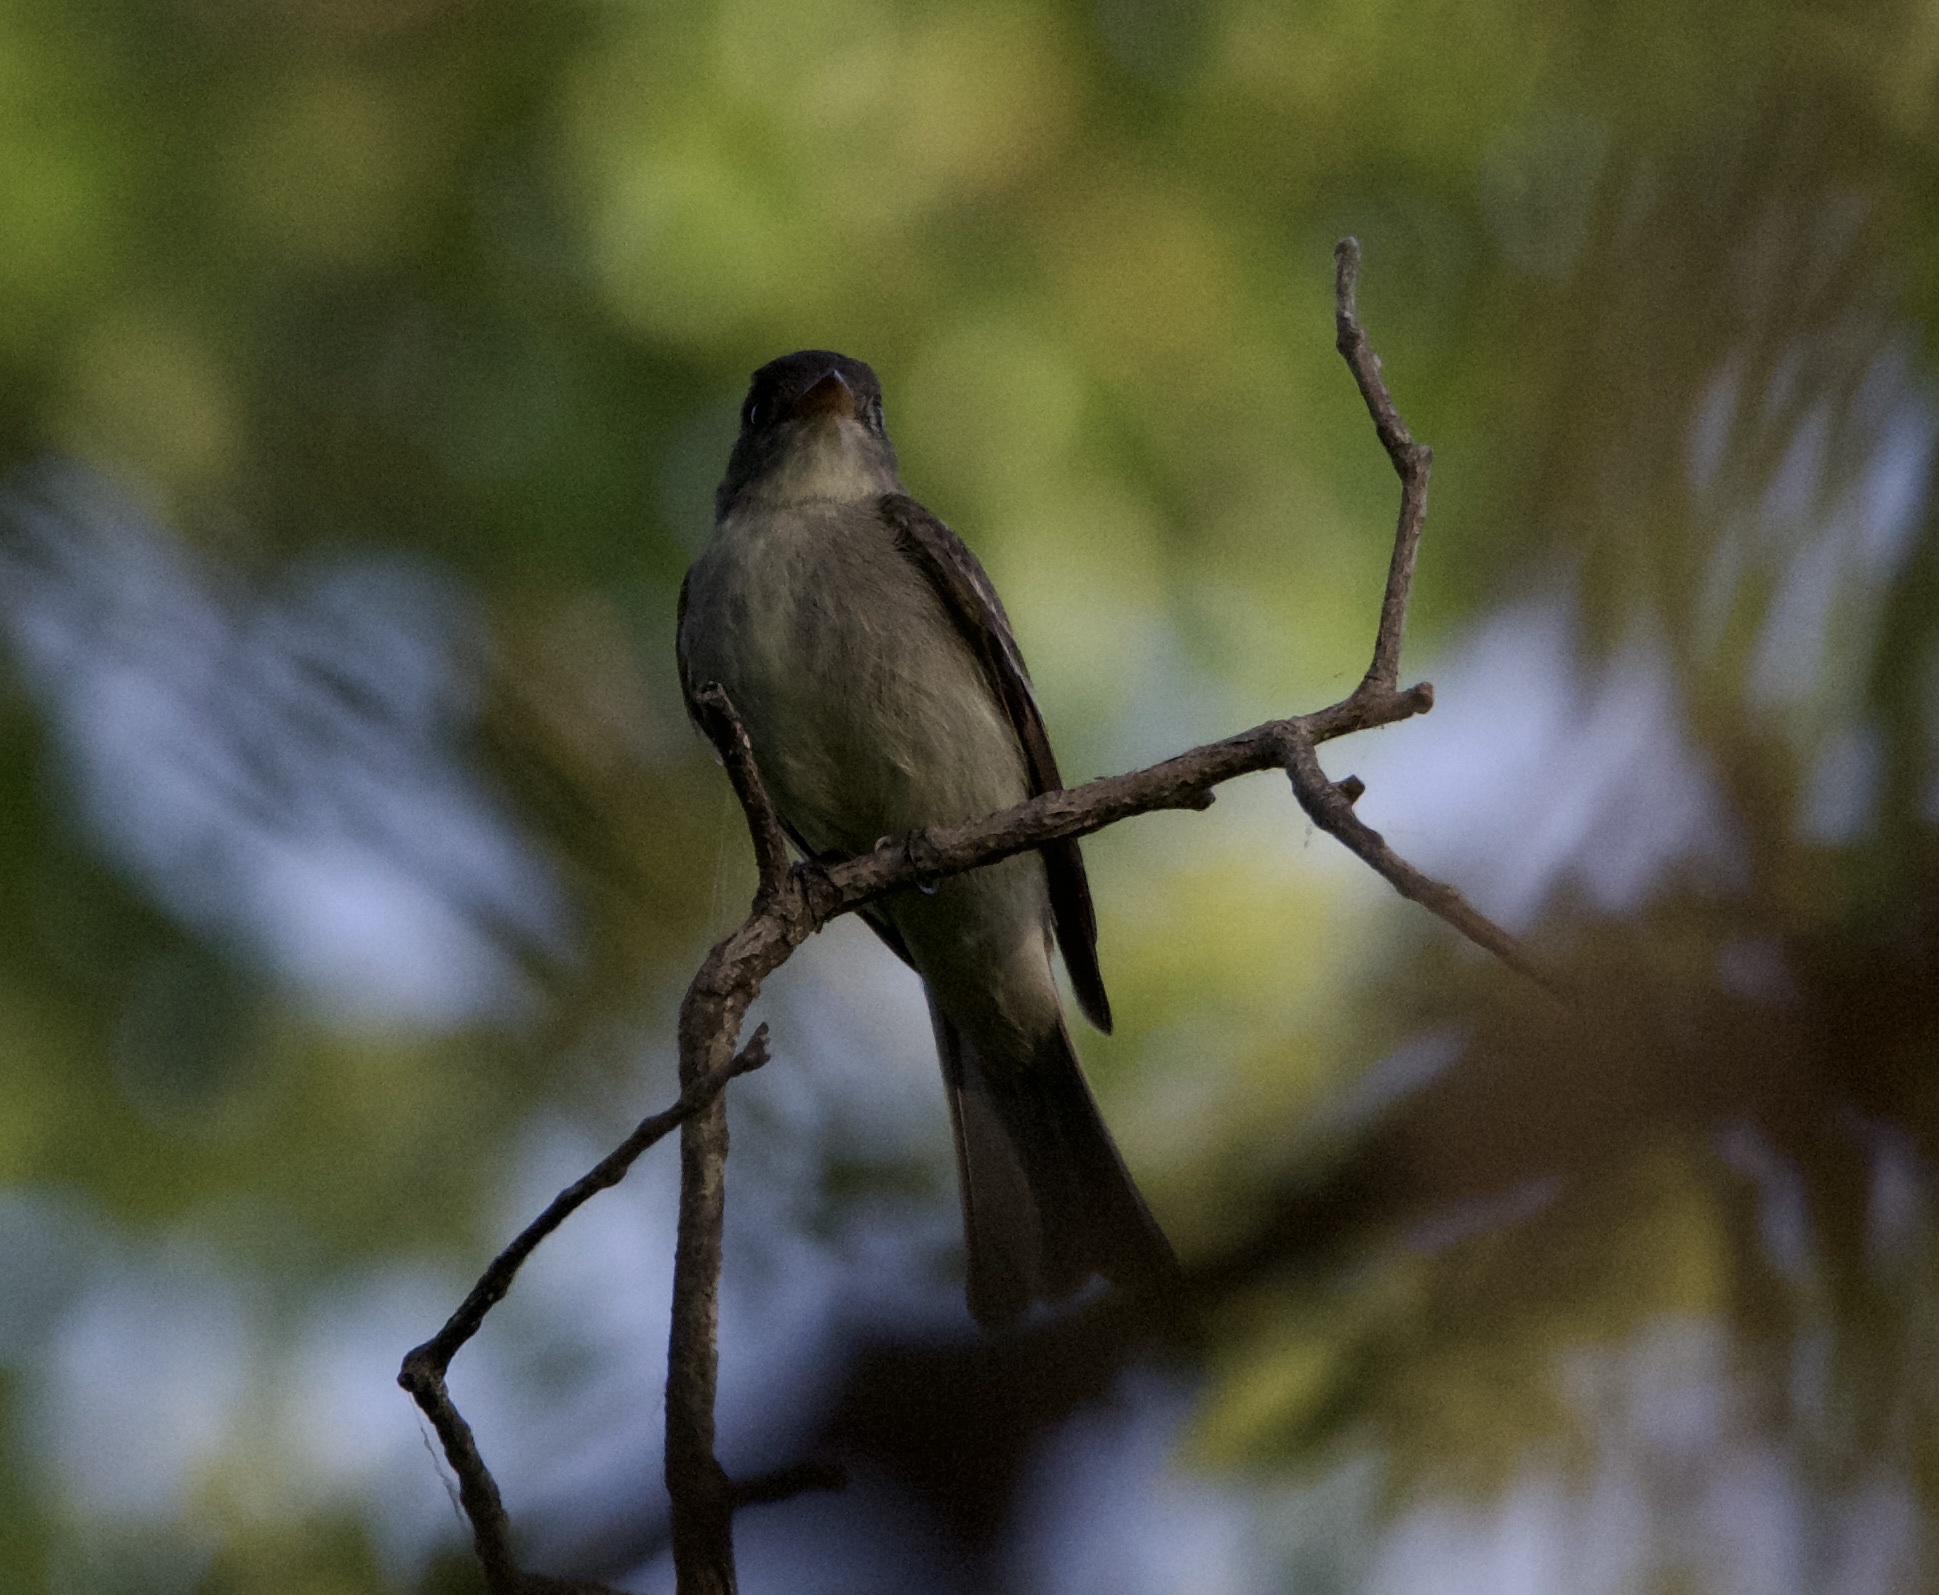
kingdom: Animalia
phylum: Chordata
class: Aves
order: Passeriformes
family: Tyrannidae
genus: Contopus
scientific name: Contopus virens
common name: Eastern wood-pewee
